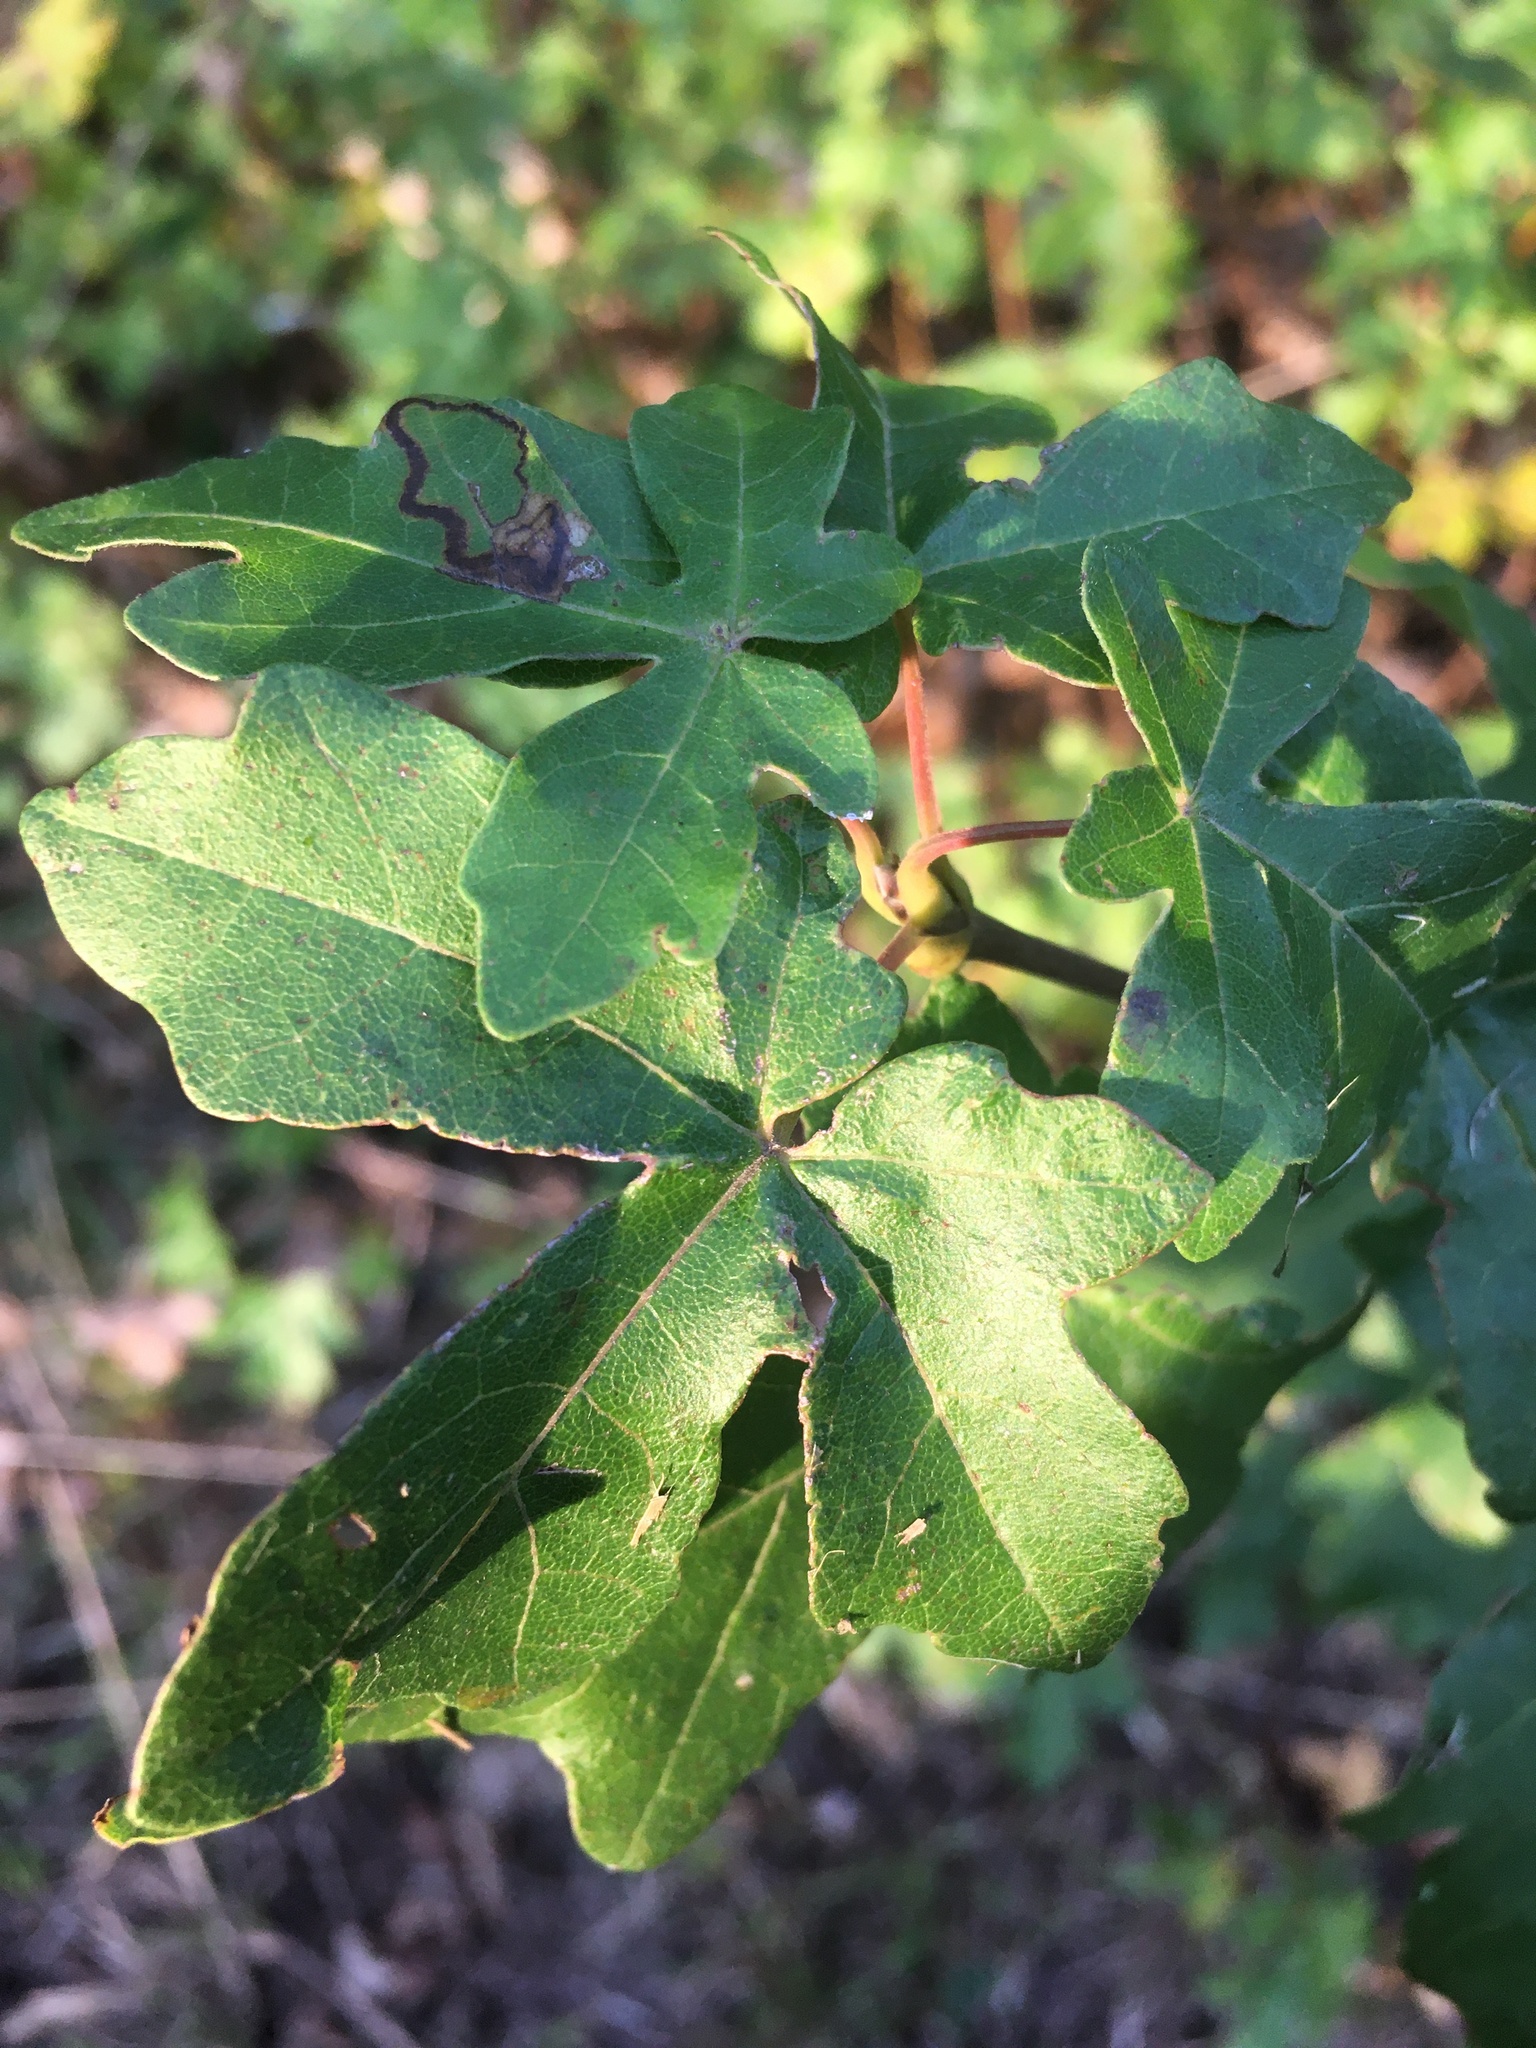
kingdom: Plantae
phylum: Tracheophyta
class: Magnoliopsida
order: Sapindales
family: Sapindaceae
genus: Acer
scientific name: Acer campestre
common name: Field maple
